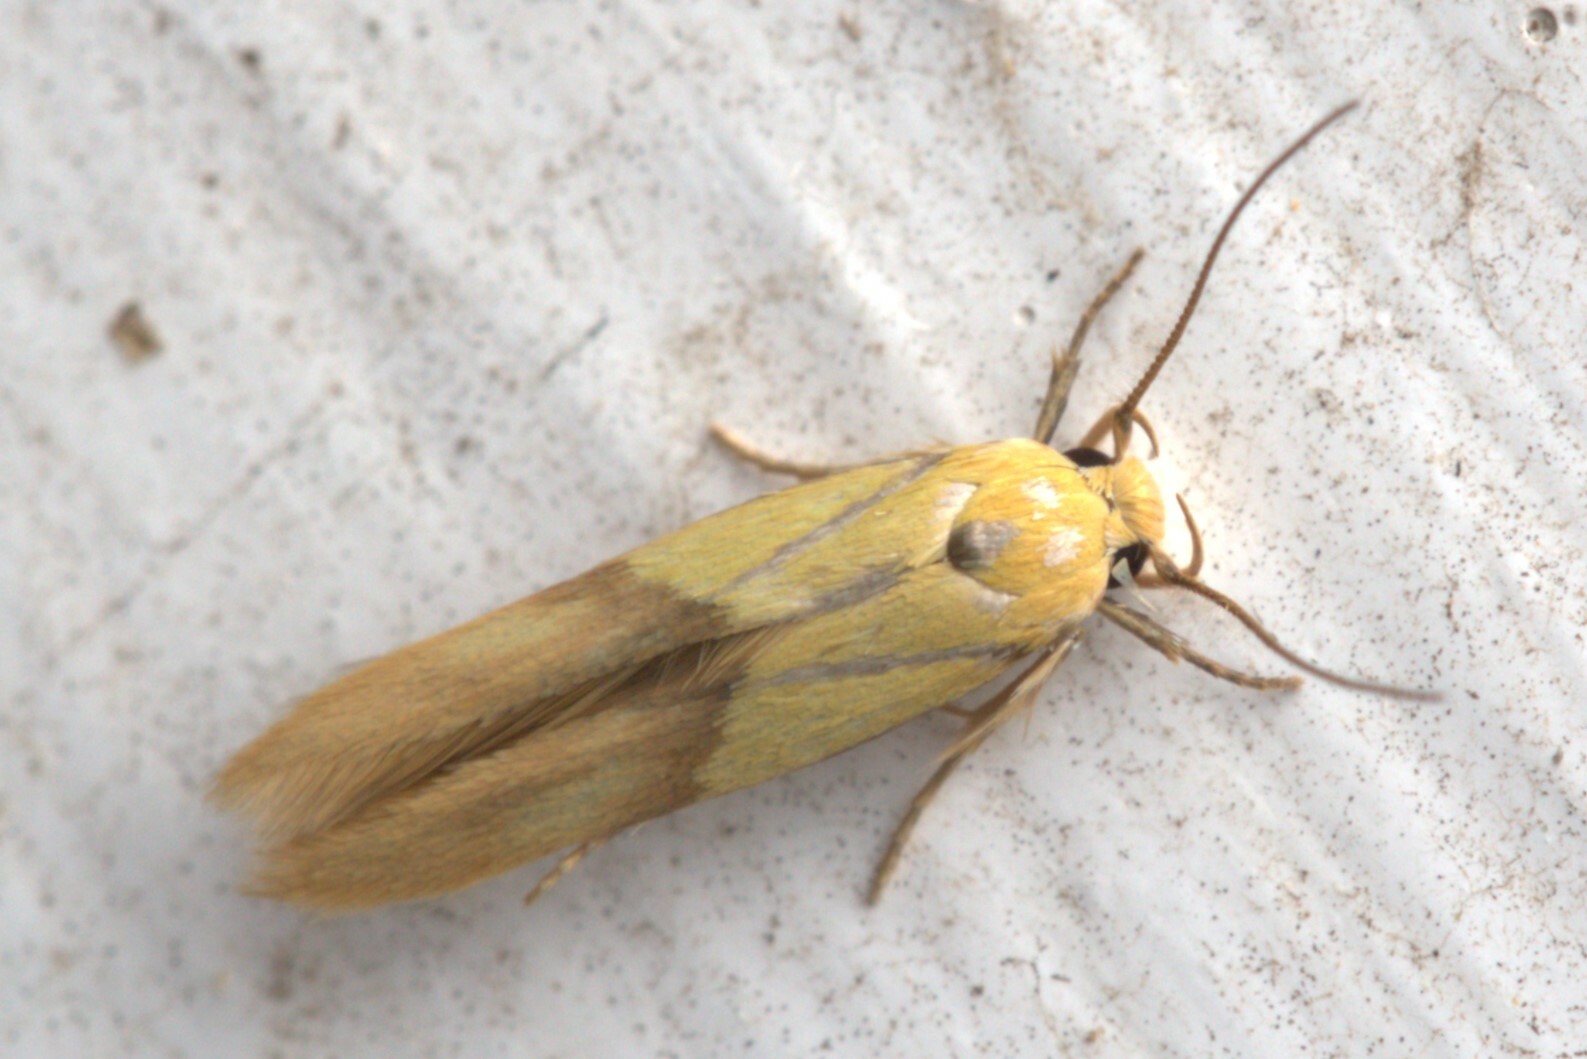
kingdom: Animalia
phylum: Arthropoda
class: Insecta
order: Lepidoptera
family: Stathmopodidae
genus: Stathmopoda
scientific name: Stathmopoda auriferella
